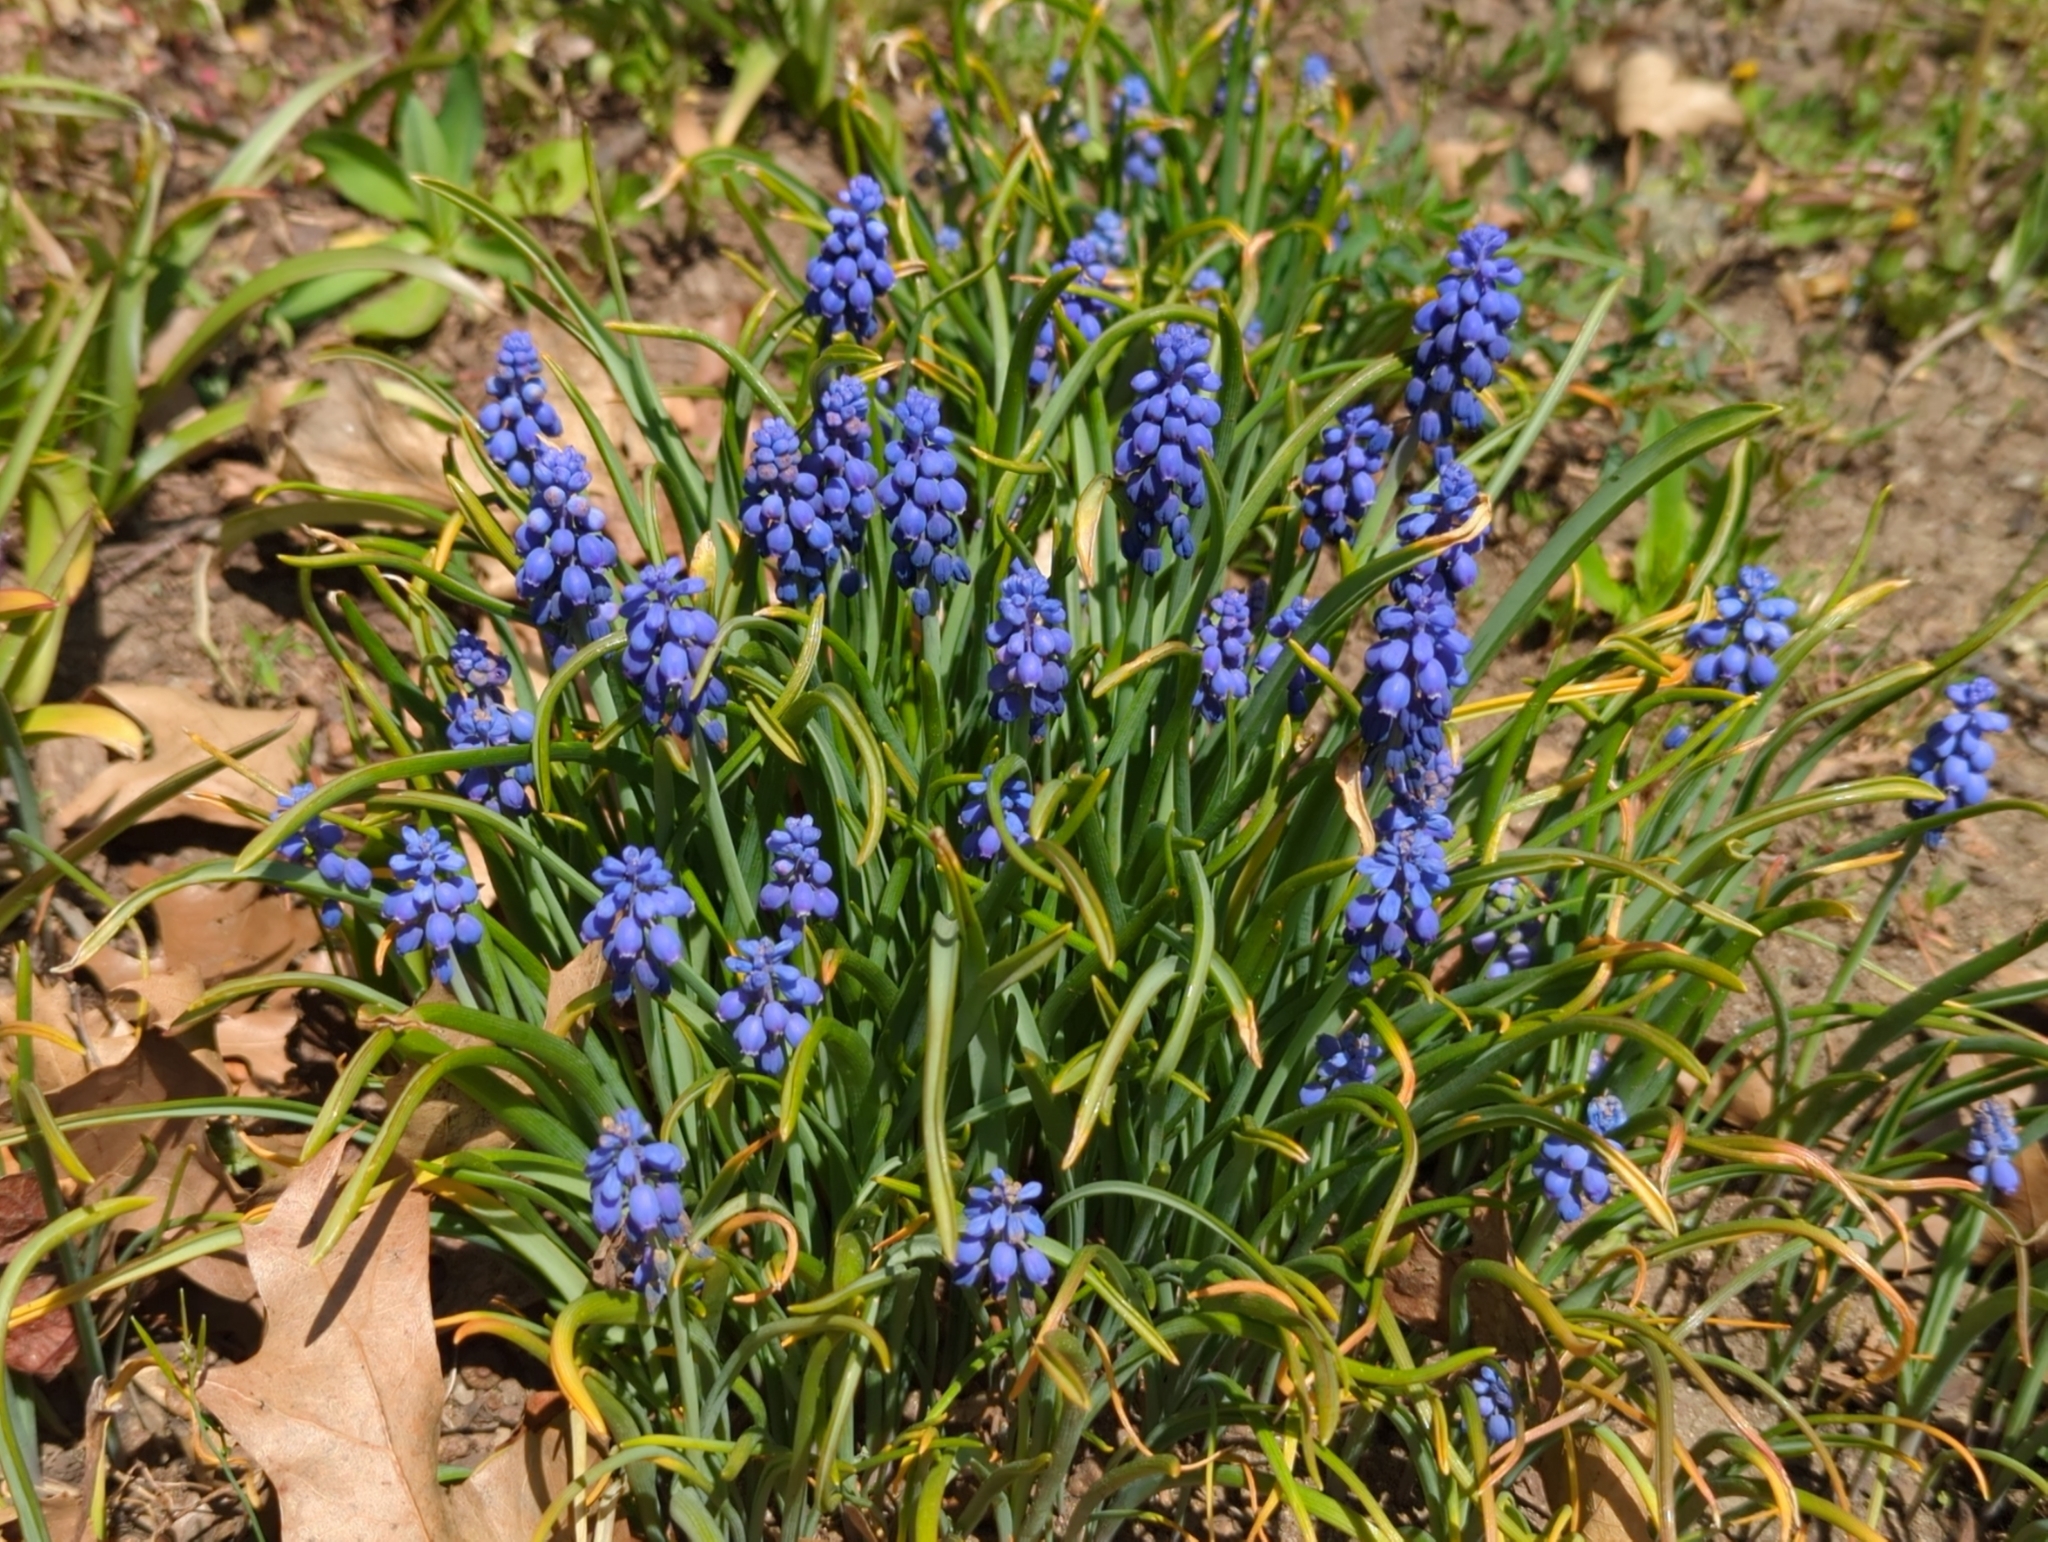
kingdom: Plantae
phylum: Tracheophyta
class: Liliopsida
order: Asparagales
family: Asparagaceae
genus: Muscari
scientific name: Muscari botryoides
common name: Compact grape-hyacinth
